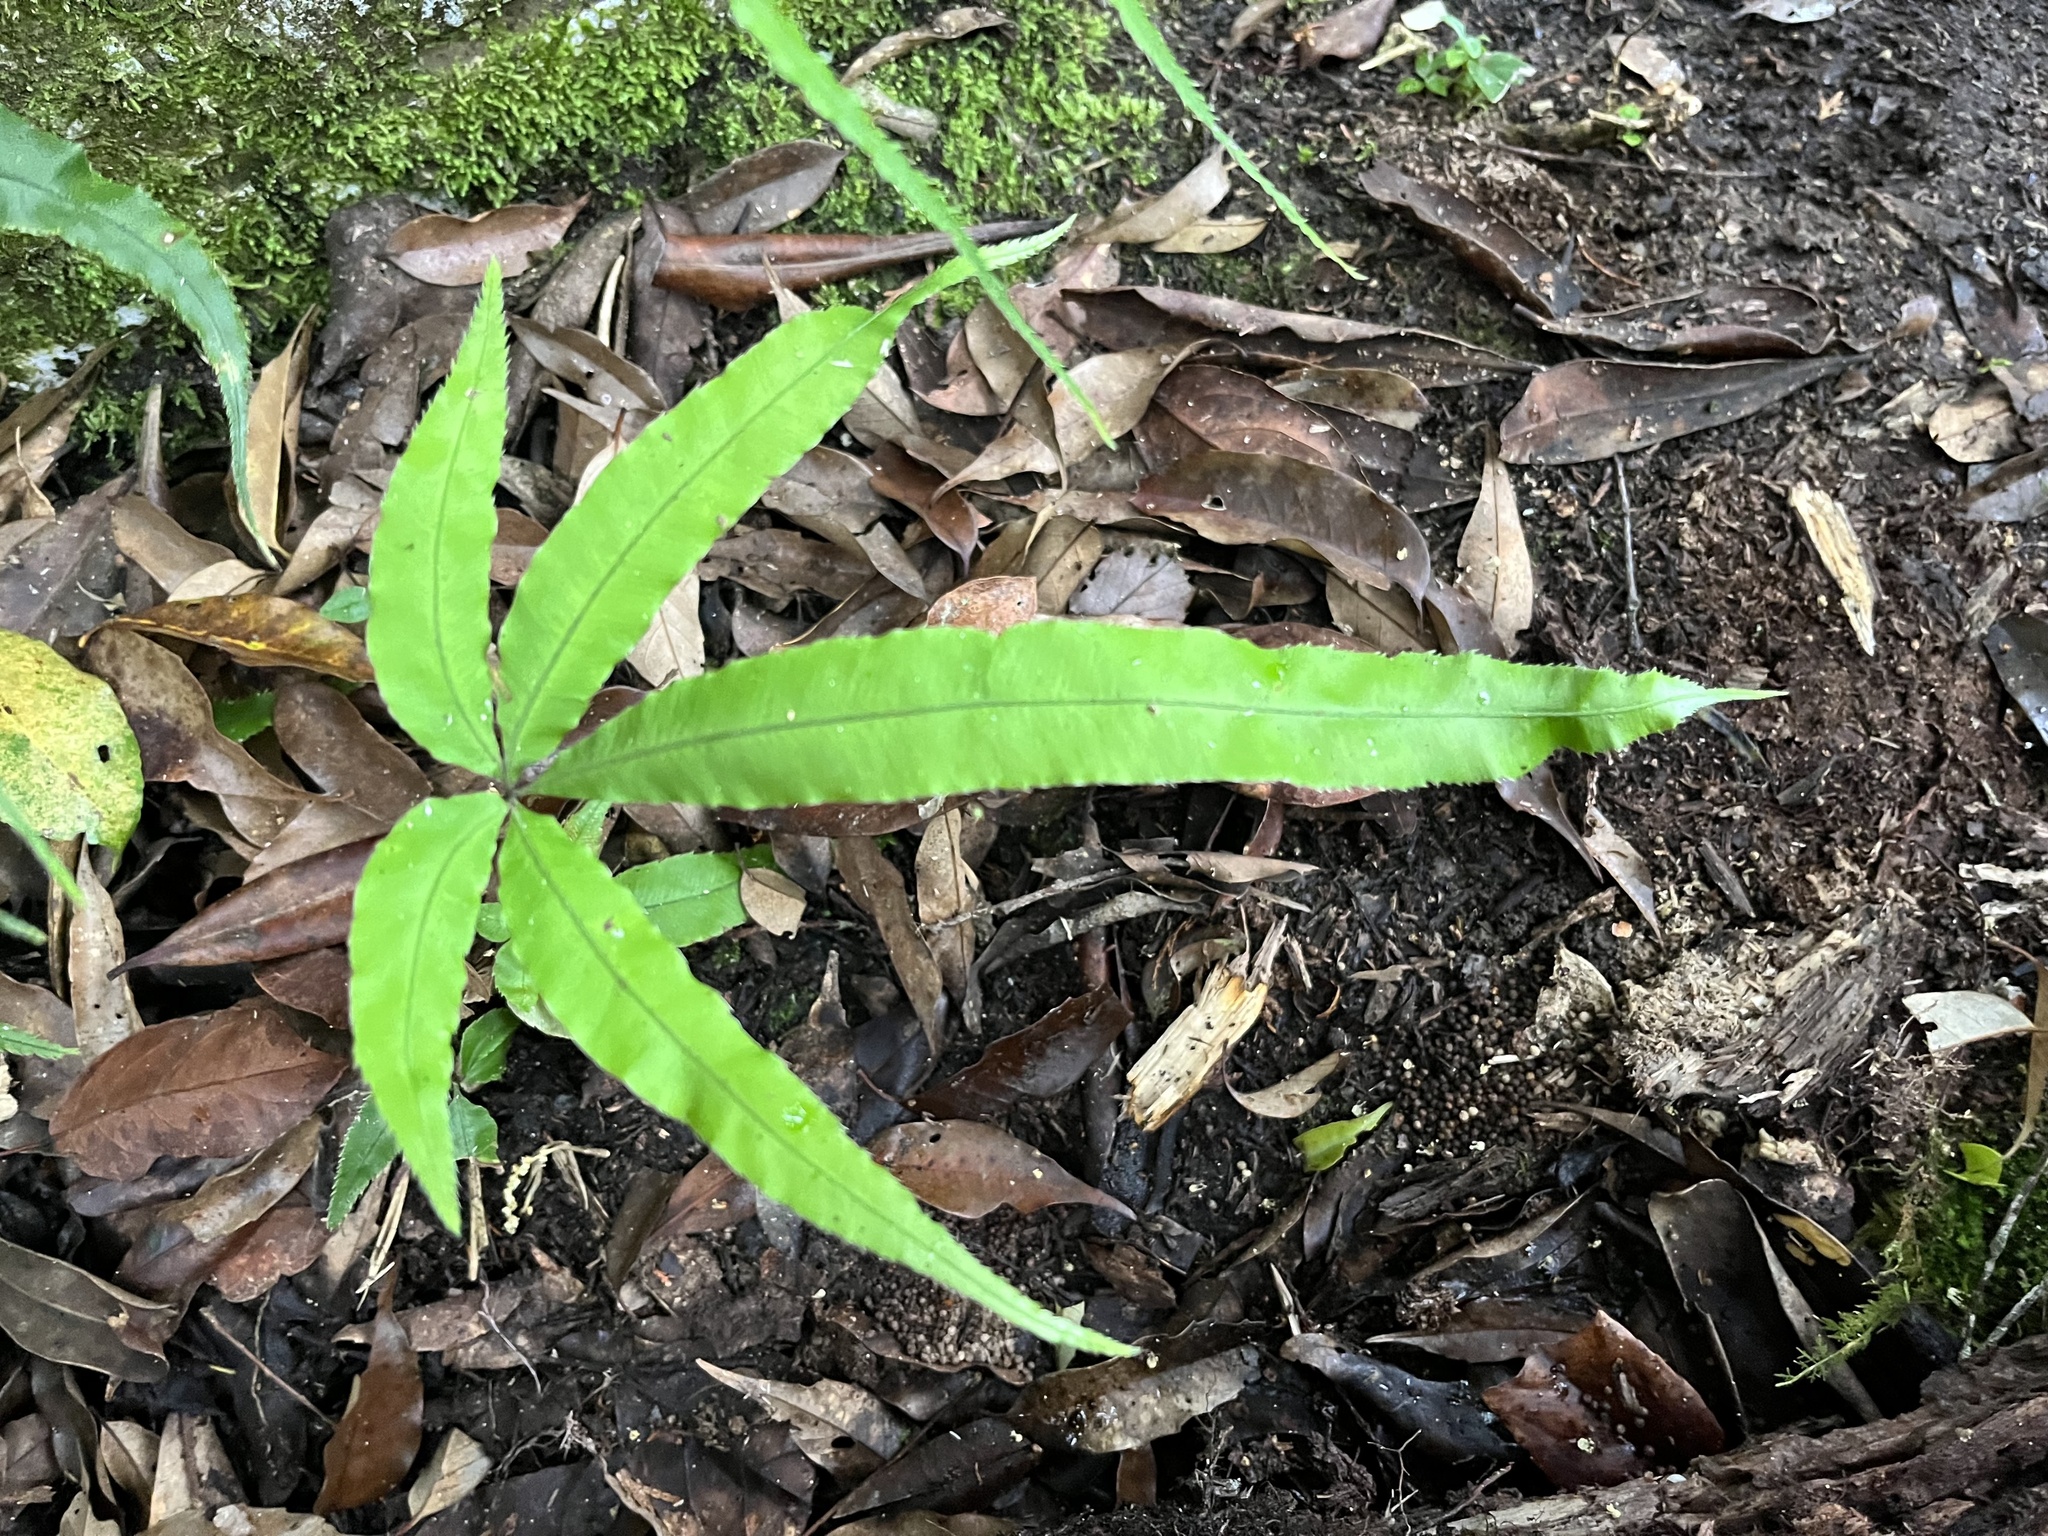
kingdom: Plantae
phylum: Tracheophyta
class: Polypodiopsida
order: Polypodiales
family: Pteridaceae
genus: Pteris
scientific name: Pteris cretica
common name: Ribbon fern
